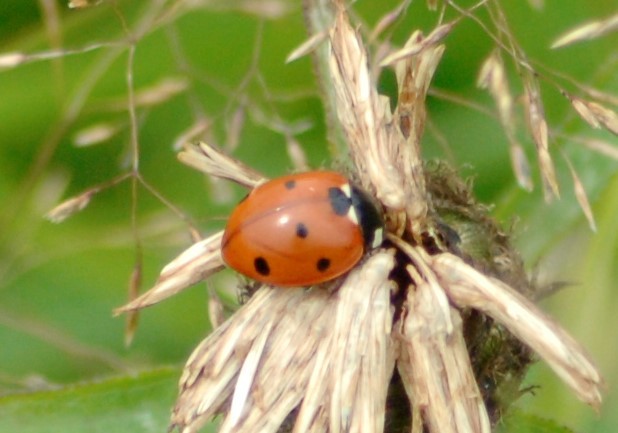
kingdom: Animalia
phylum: Arthropoda
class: Insecta
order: Coleoptera
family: Coccinellidae
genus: Coccinella
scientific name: Coccinella septempunctata
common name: Sevenspotted lady beetle
